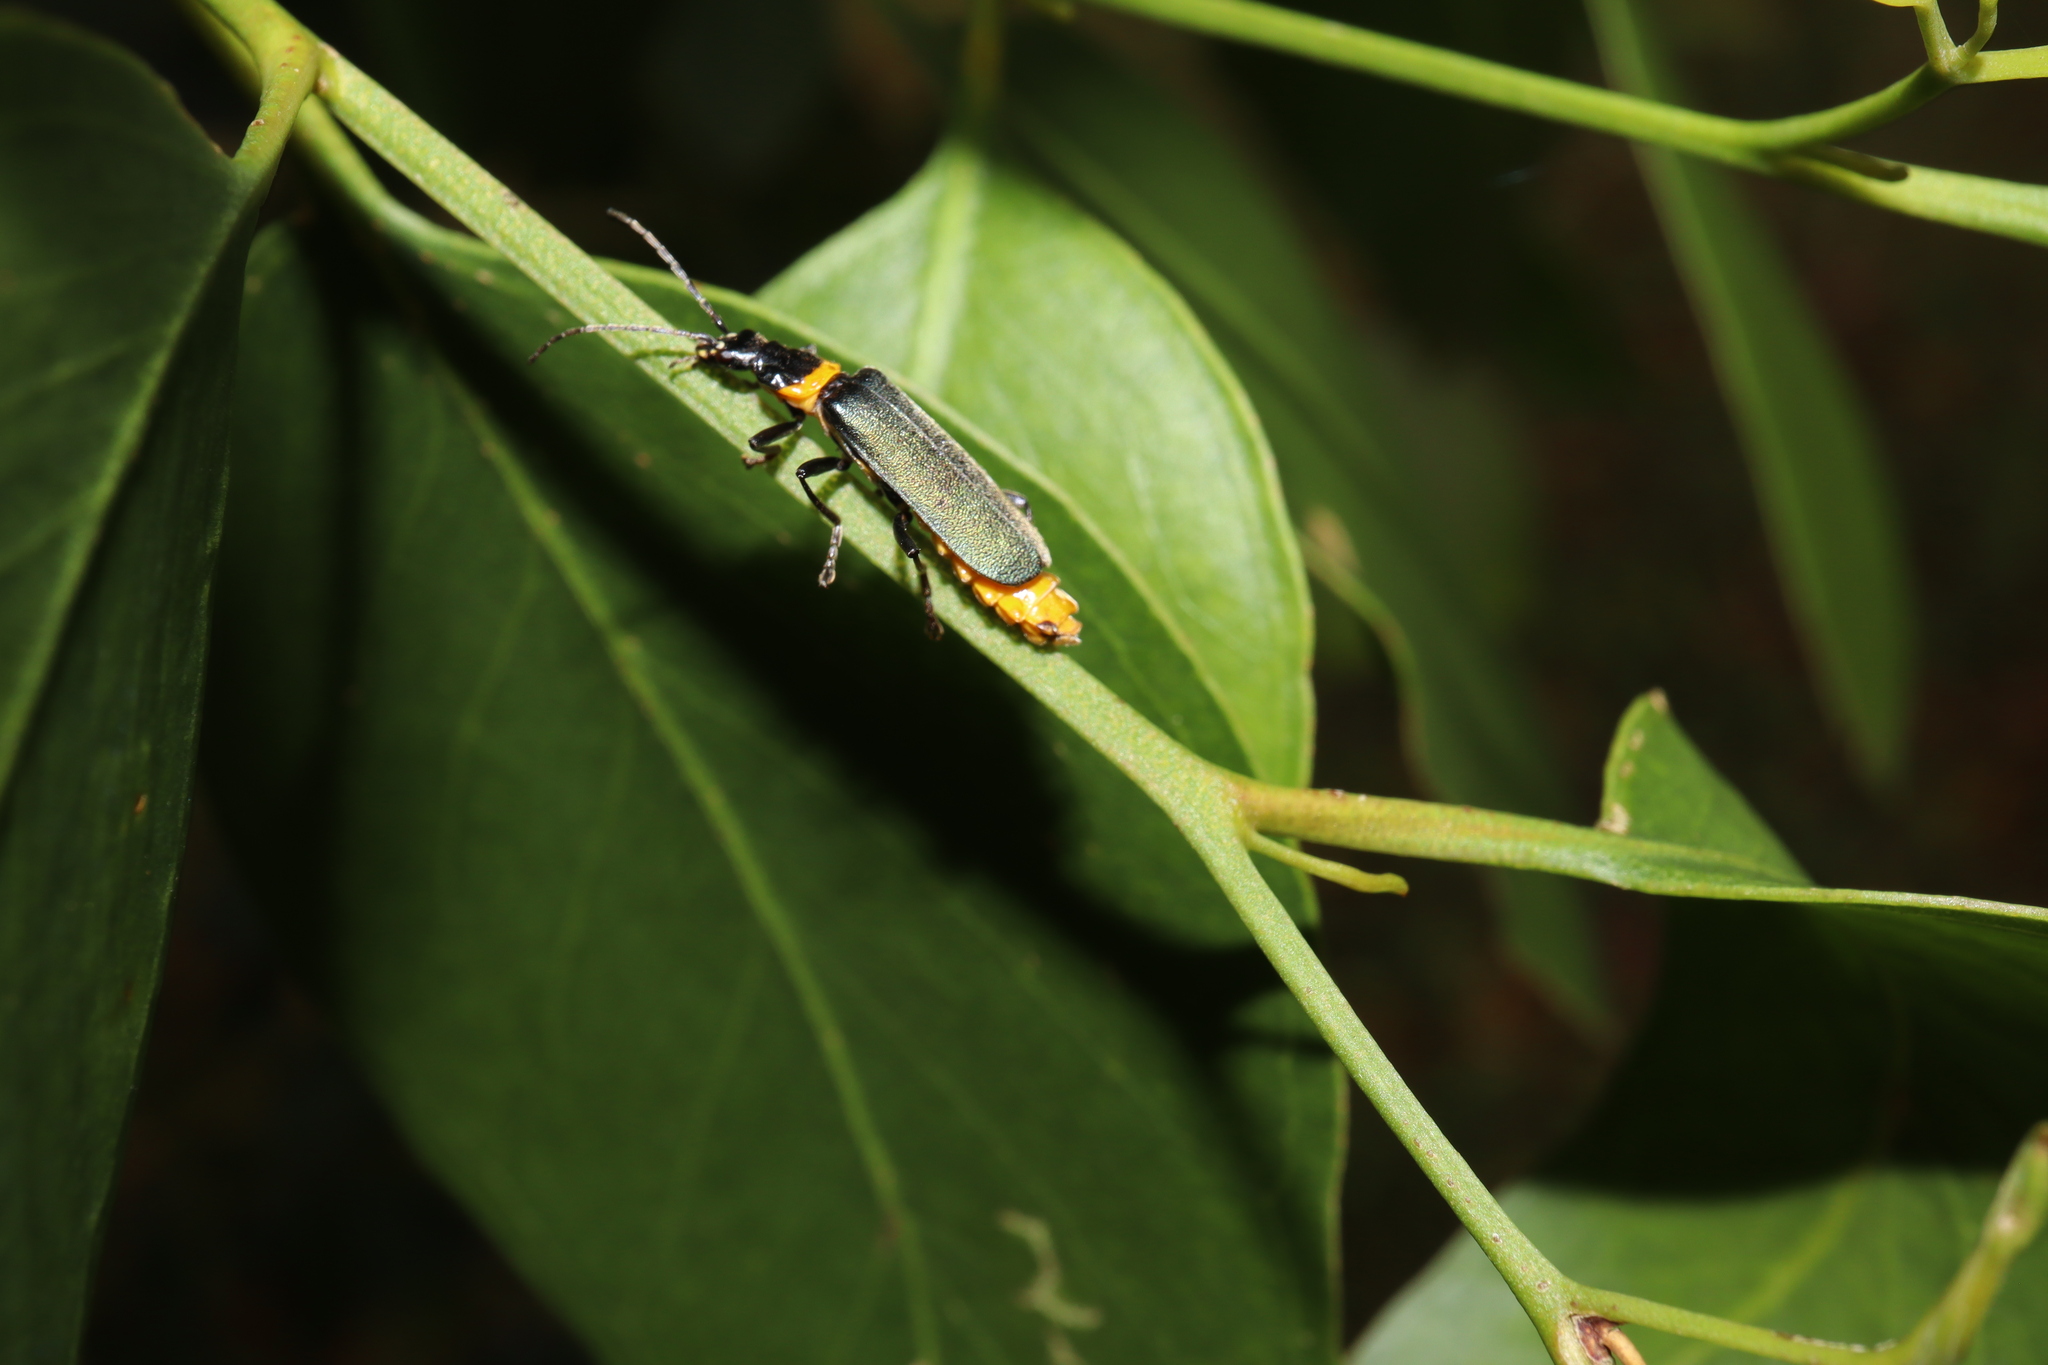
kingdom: Animalia
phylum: Arthropoda
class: Insecta
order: Coleoptera
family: Cantharidae
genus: Chauliognathus
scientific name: Chauliognathus
